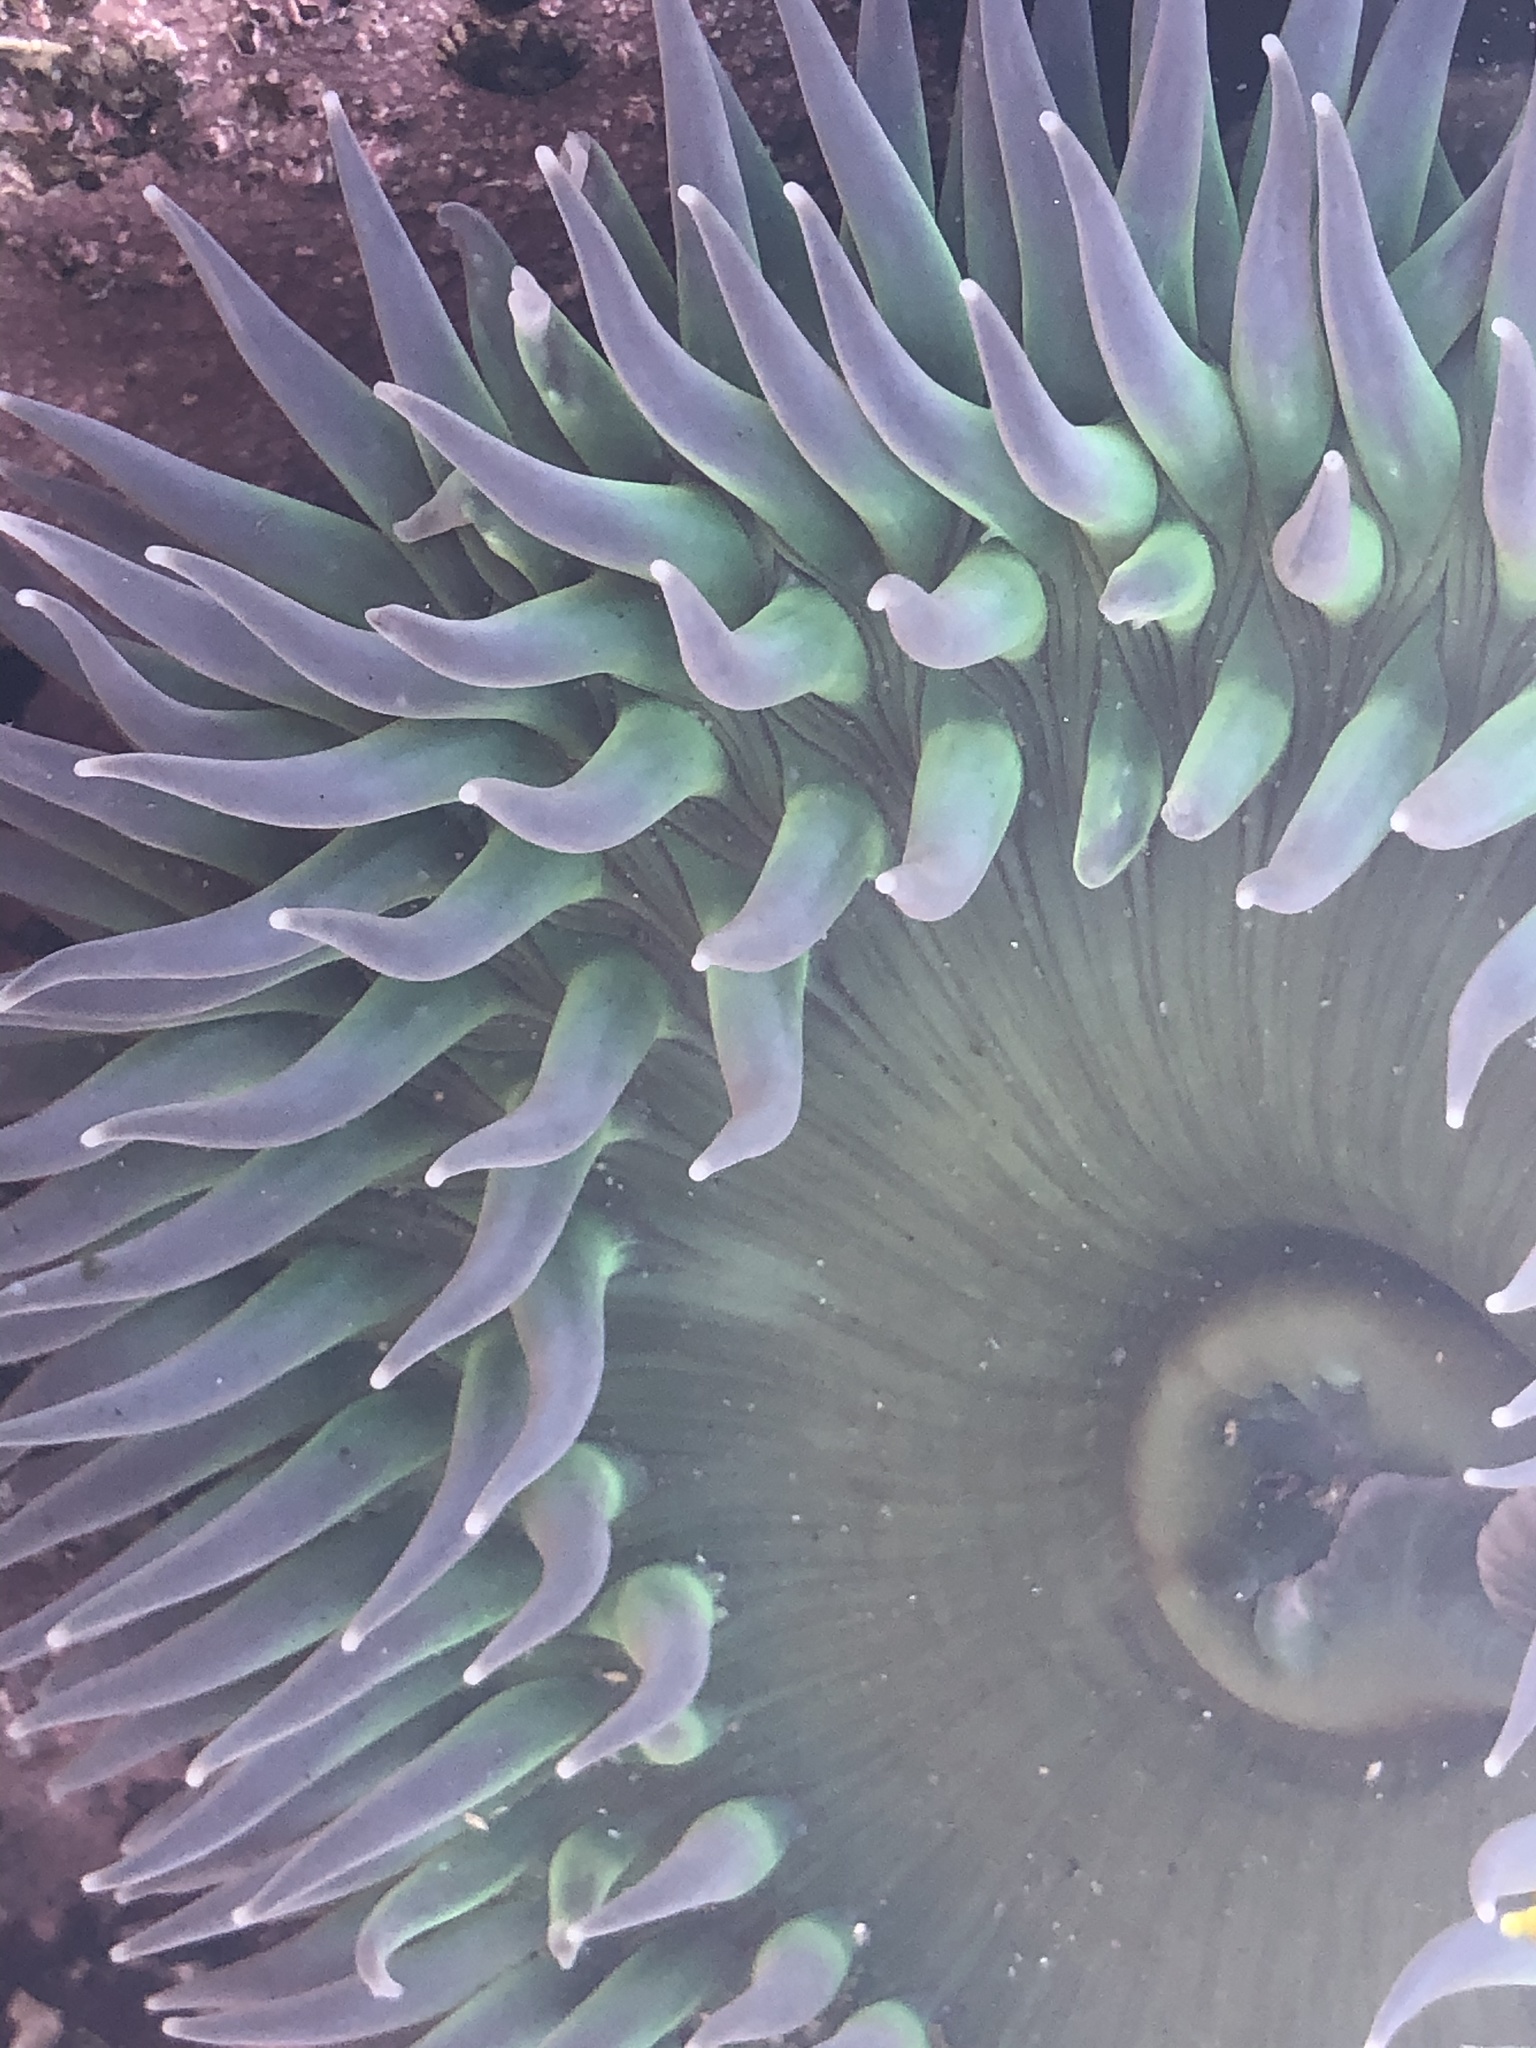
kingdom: Animalia
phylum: Cnidaria
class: Anthozoa
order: Actiniaria
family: Actiniidae
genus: Anthopleura
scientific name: Anthopleura xanthogrammica
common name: Giant green anemone
